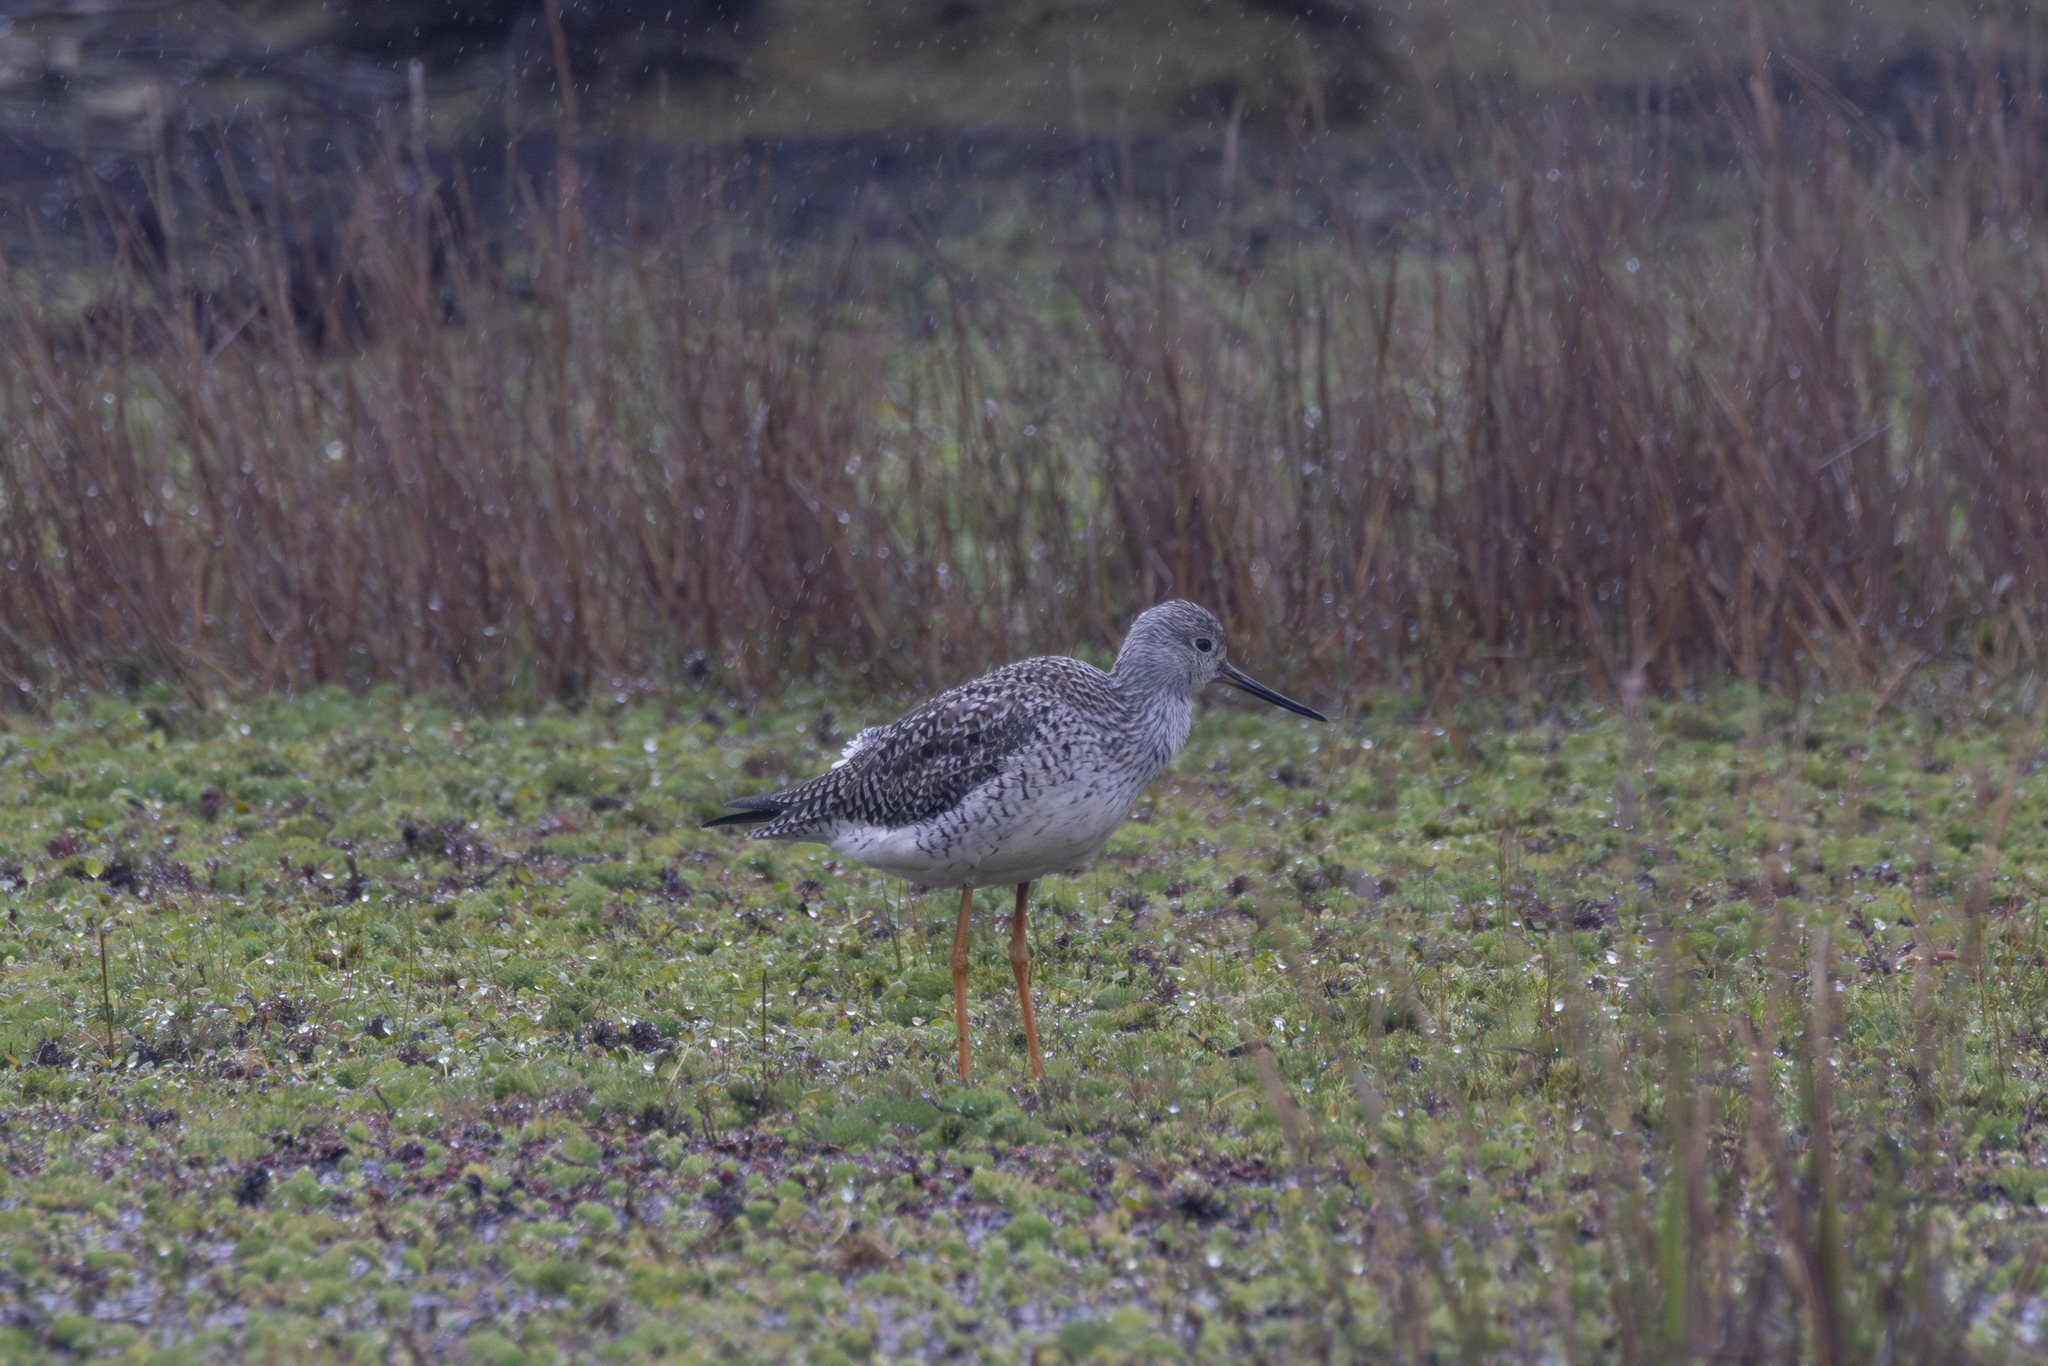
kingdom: Animalia
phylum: Chordata
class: Aves
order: Charadriiformes
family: Scolopacidae
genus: Tringa
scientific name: Tringa melanoleuca
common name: Greater yellowlegs
